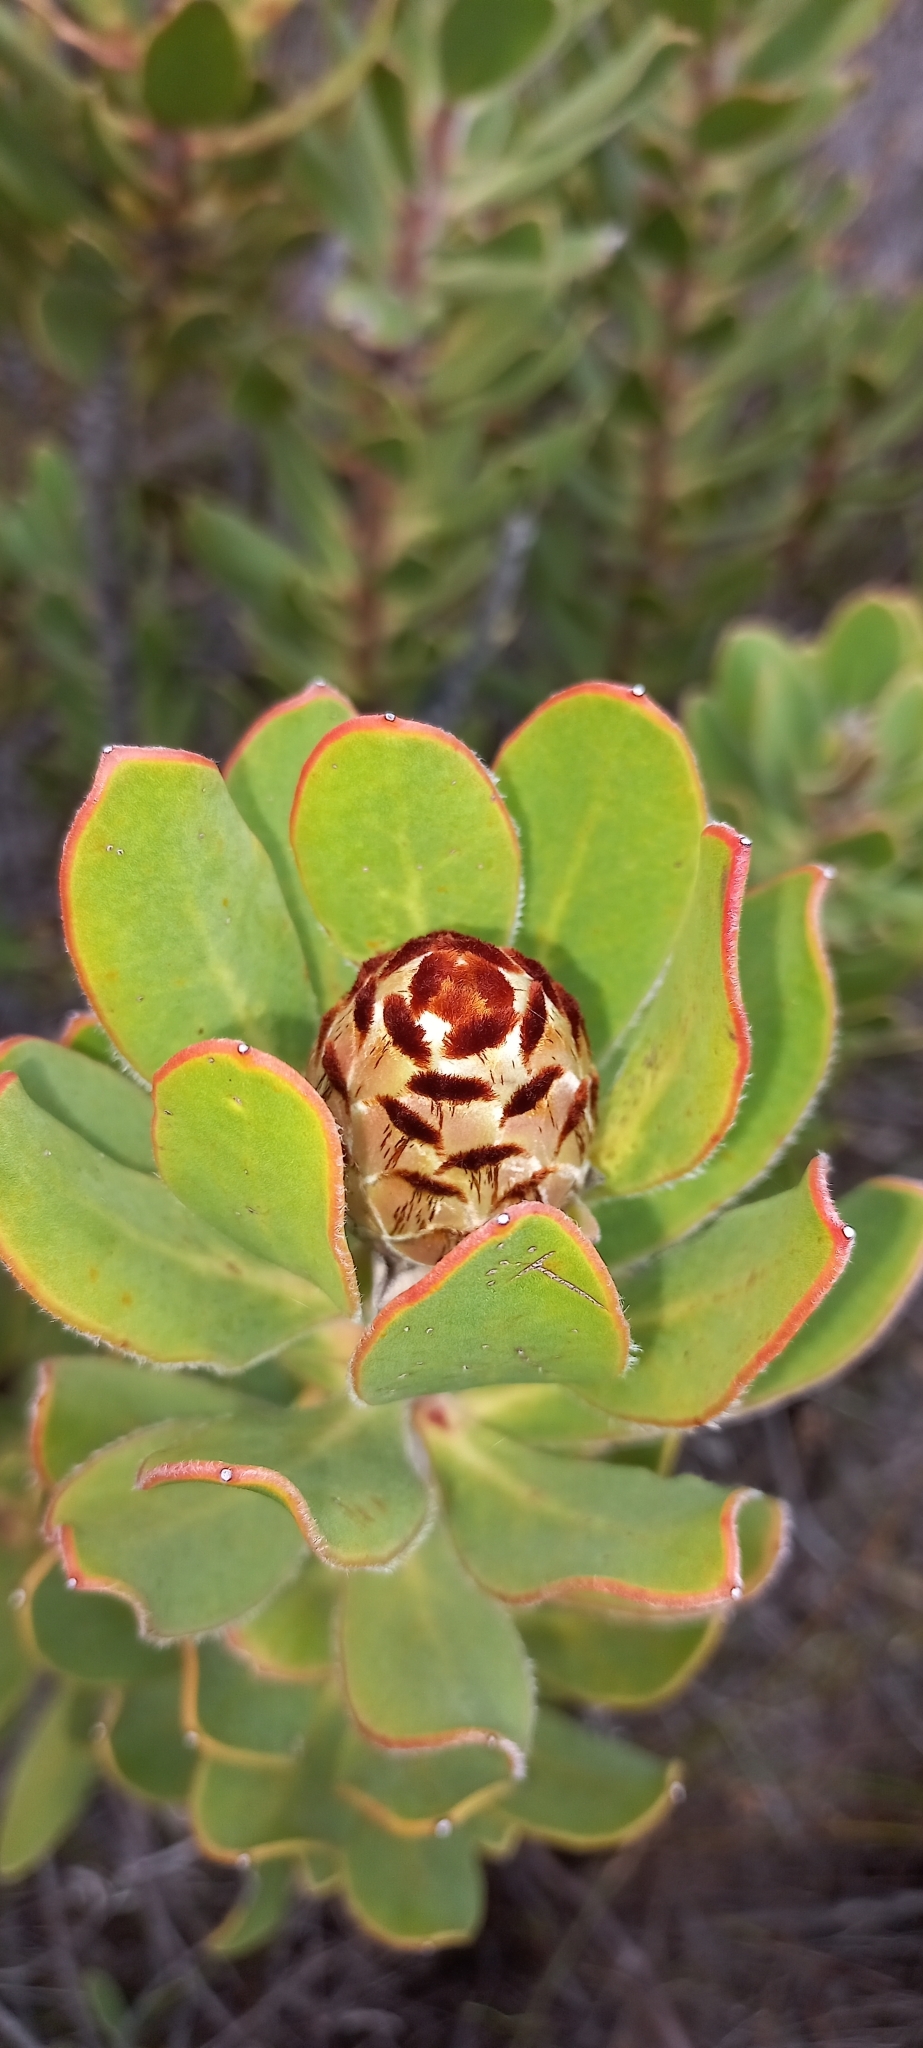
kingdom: Plantae
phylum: Tracheophyta
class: Magnoliopsida
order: Proteales
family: Proteaceae
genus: Protea
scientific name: Protea speciosa
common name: Brown-beard sugarbush
